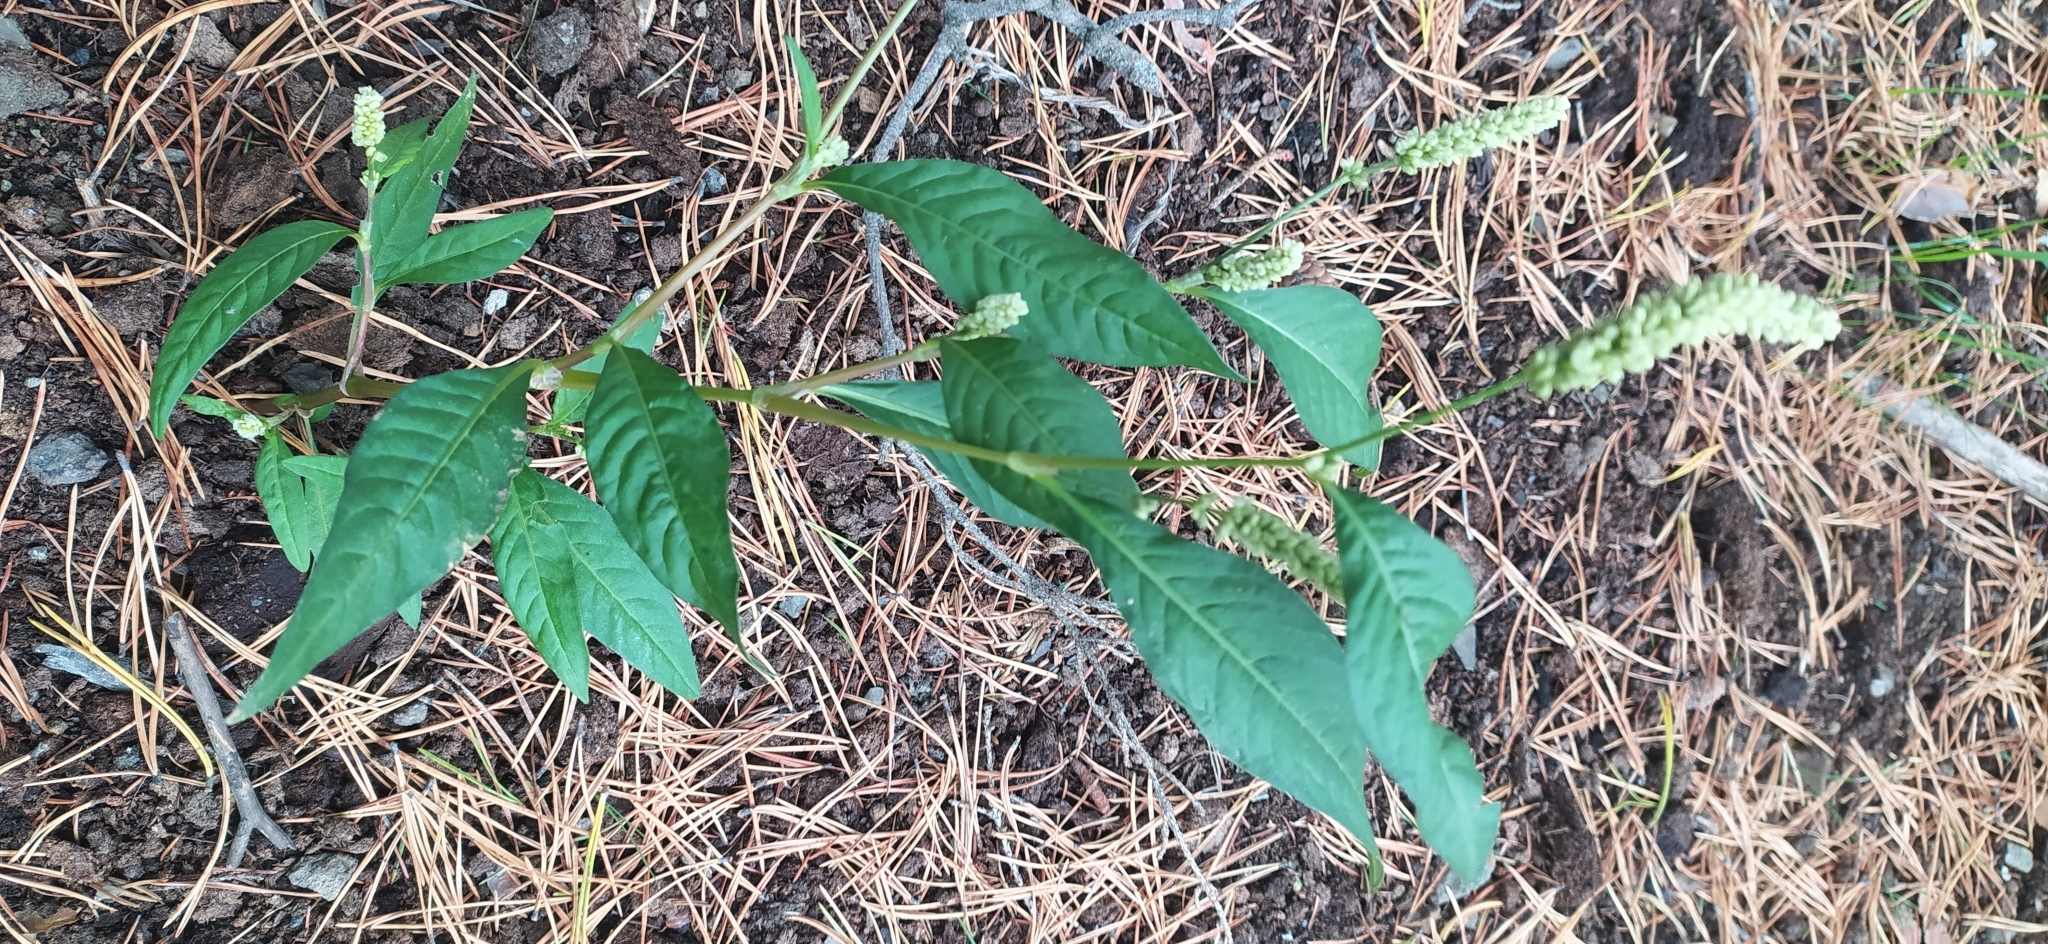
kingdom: Plantae
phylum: Tracheophyta
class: Magnoliopsida
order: Caryophyllales
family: Polygonaceae
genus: Persicaria
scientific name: Persicaria lapathifolia
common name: Curlytop knotweed
